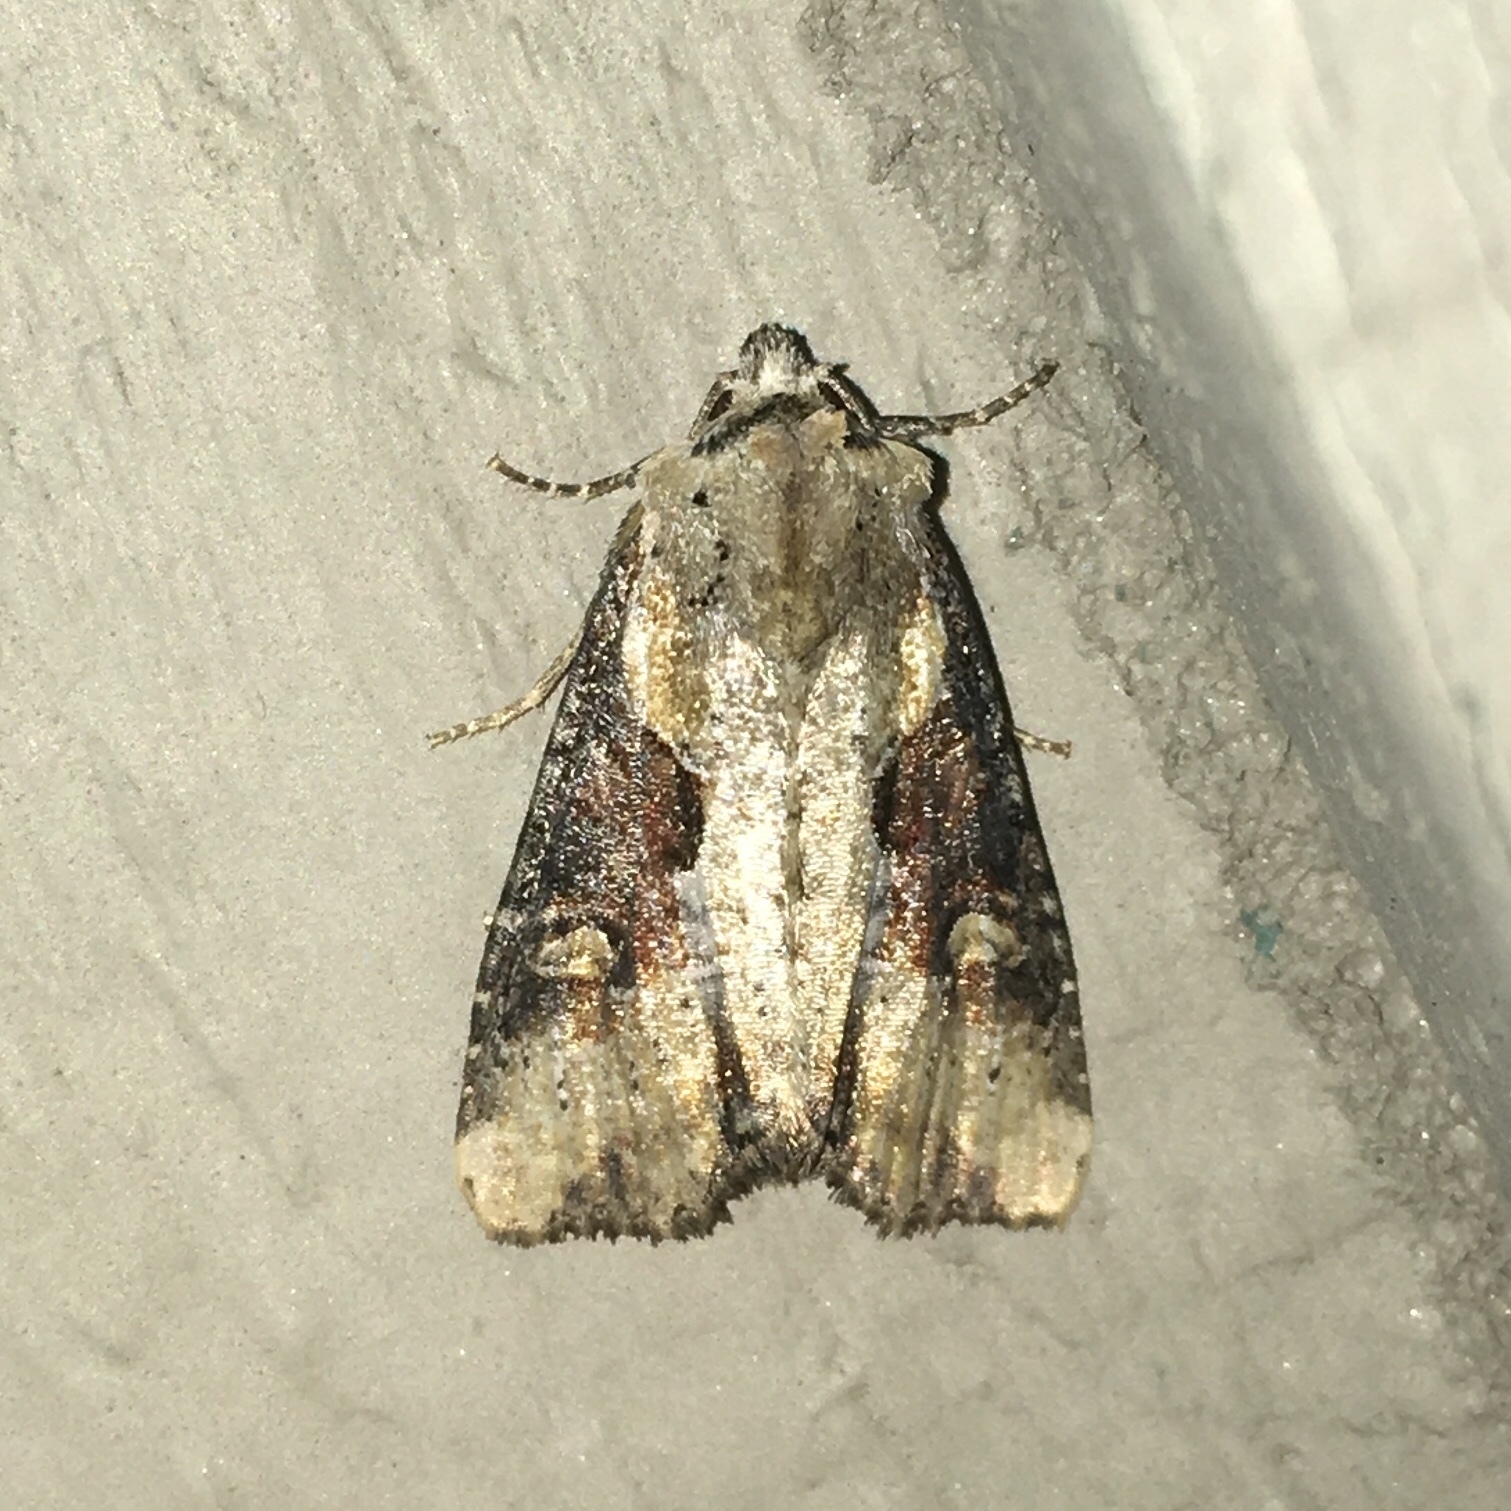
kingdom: Animalia
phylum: Arthropoda
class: Insecta
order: Lepidoptera
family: Noctuidae
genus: Lateroligia
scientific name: Lateroligia ophiogramma
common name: Double lobed
